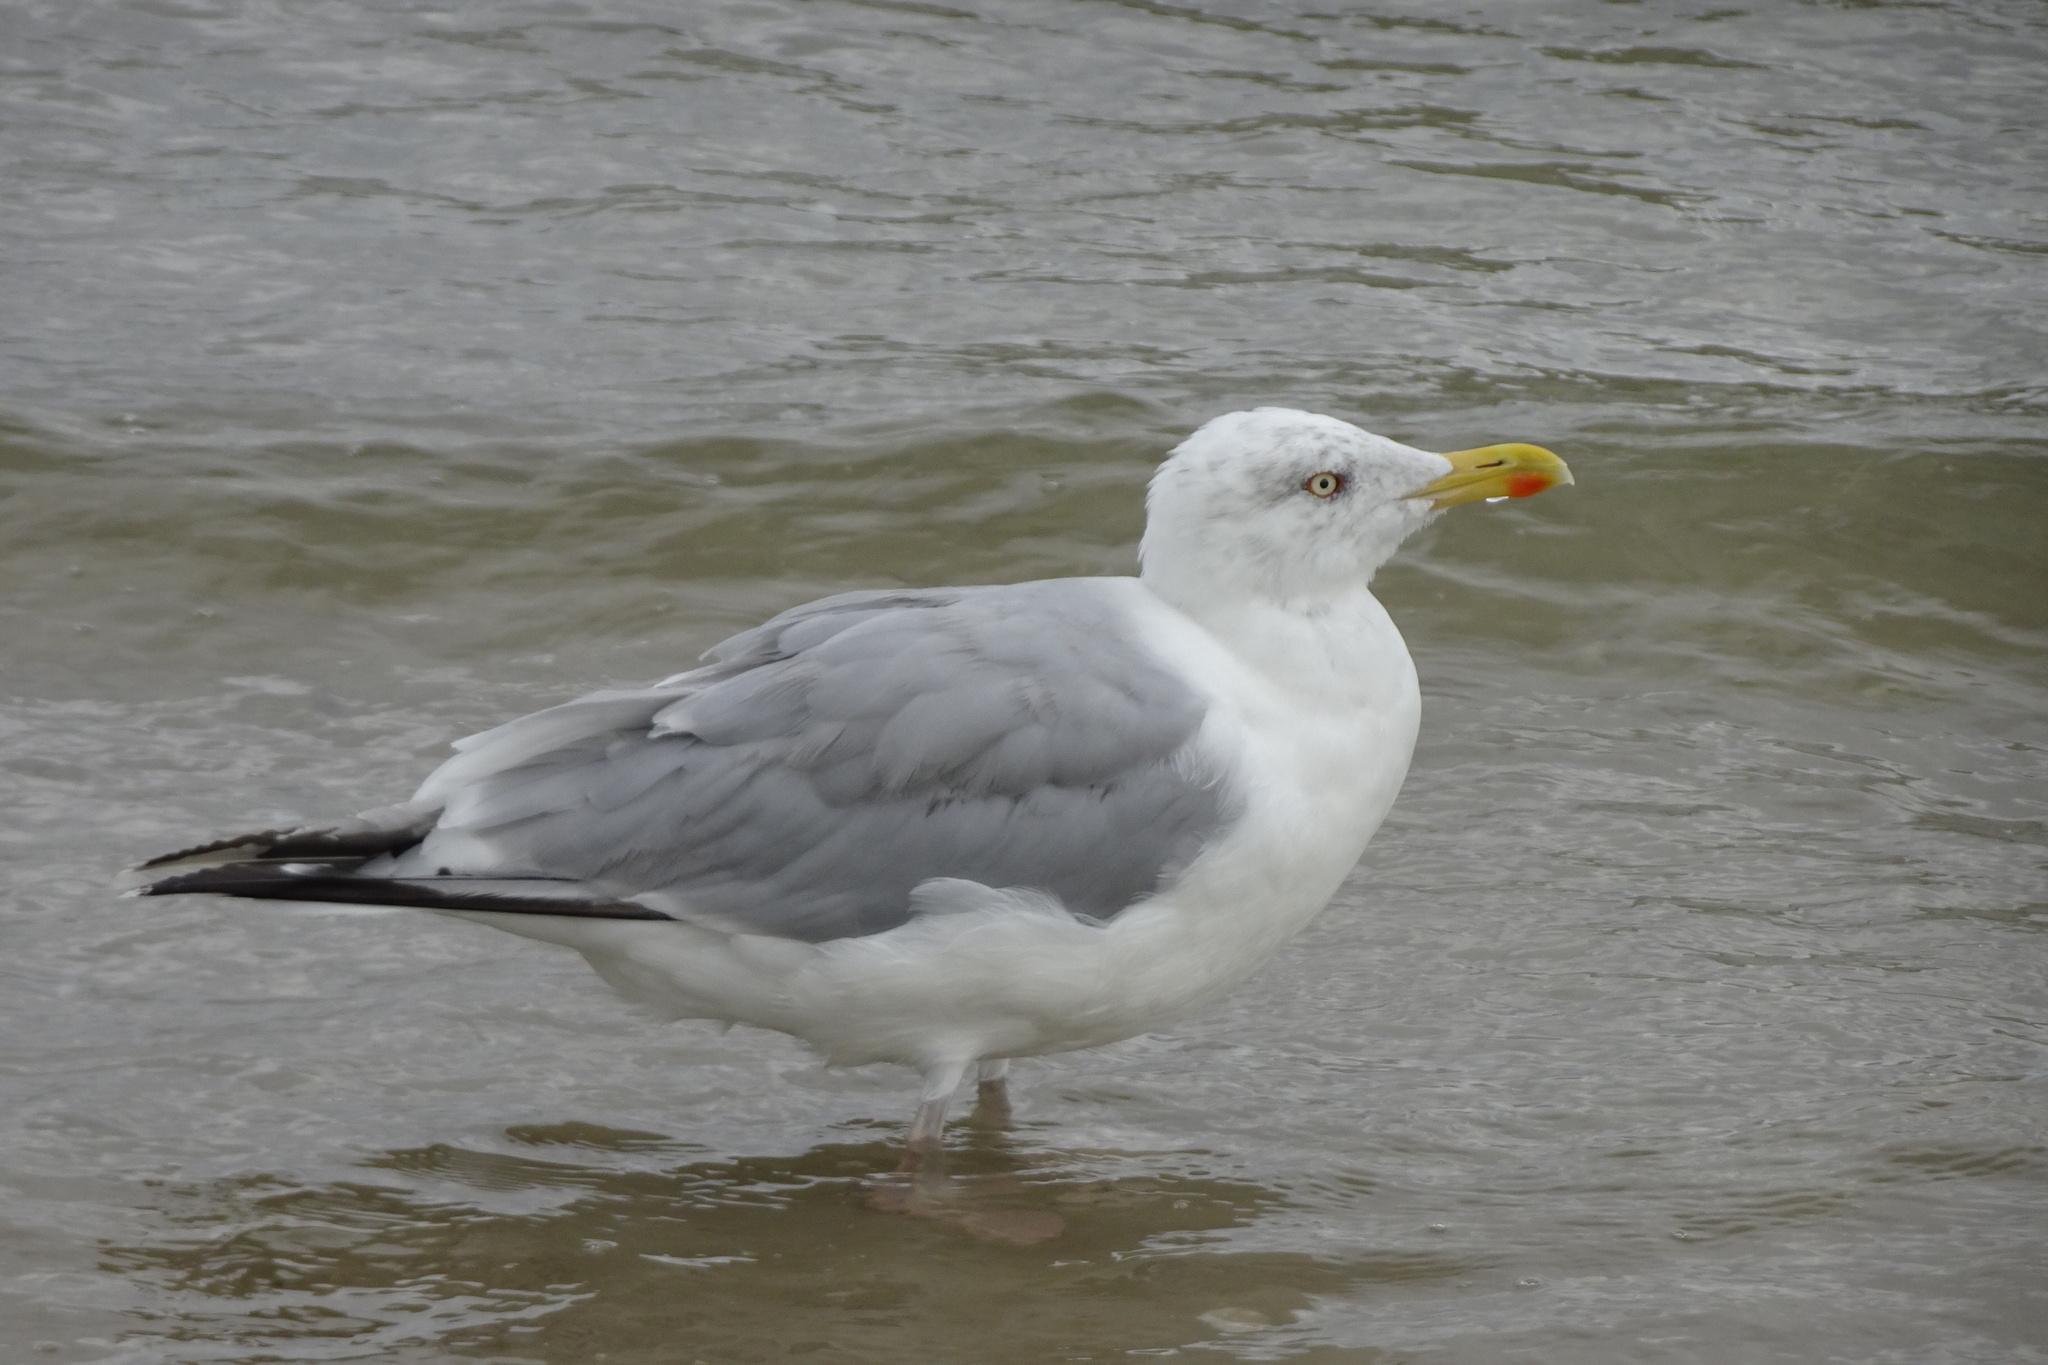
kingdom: Animalia
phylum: Chordata
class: Aves
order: Charadriiformes
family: Laridae
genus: Larus
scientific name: Larus argentatus
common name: Herring gull
